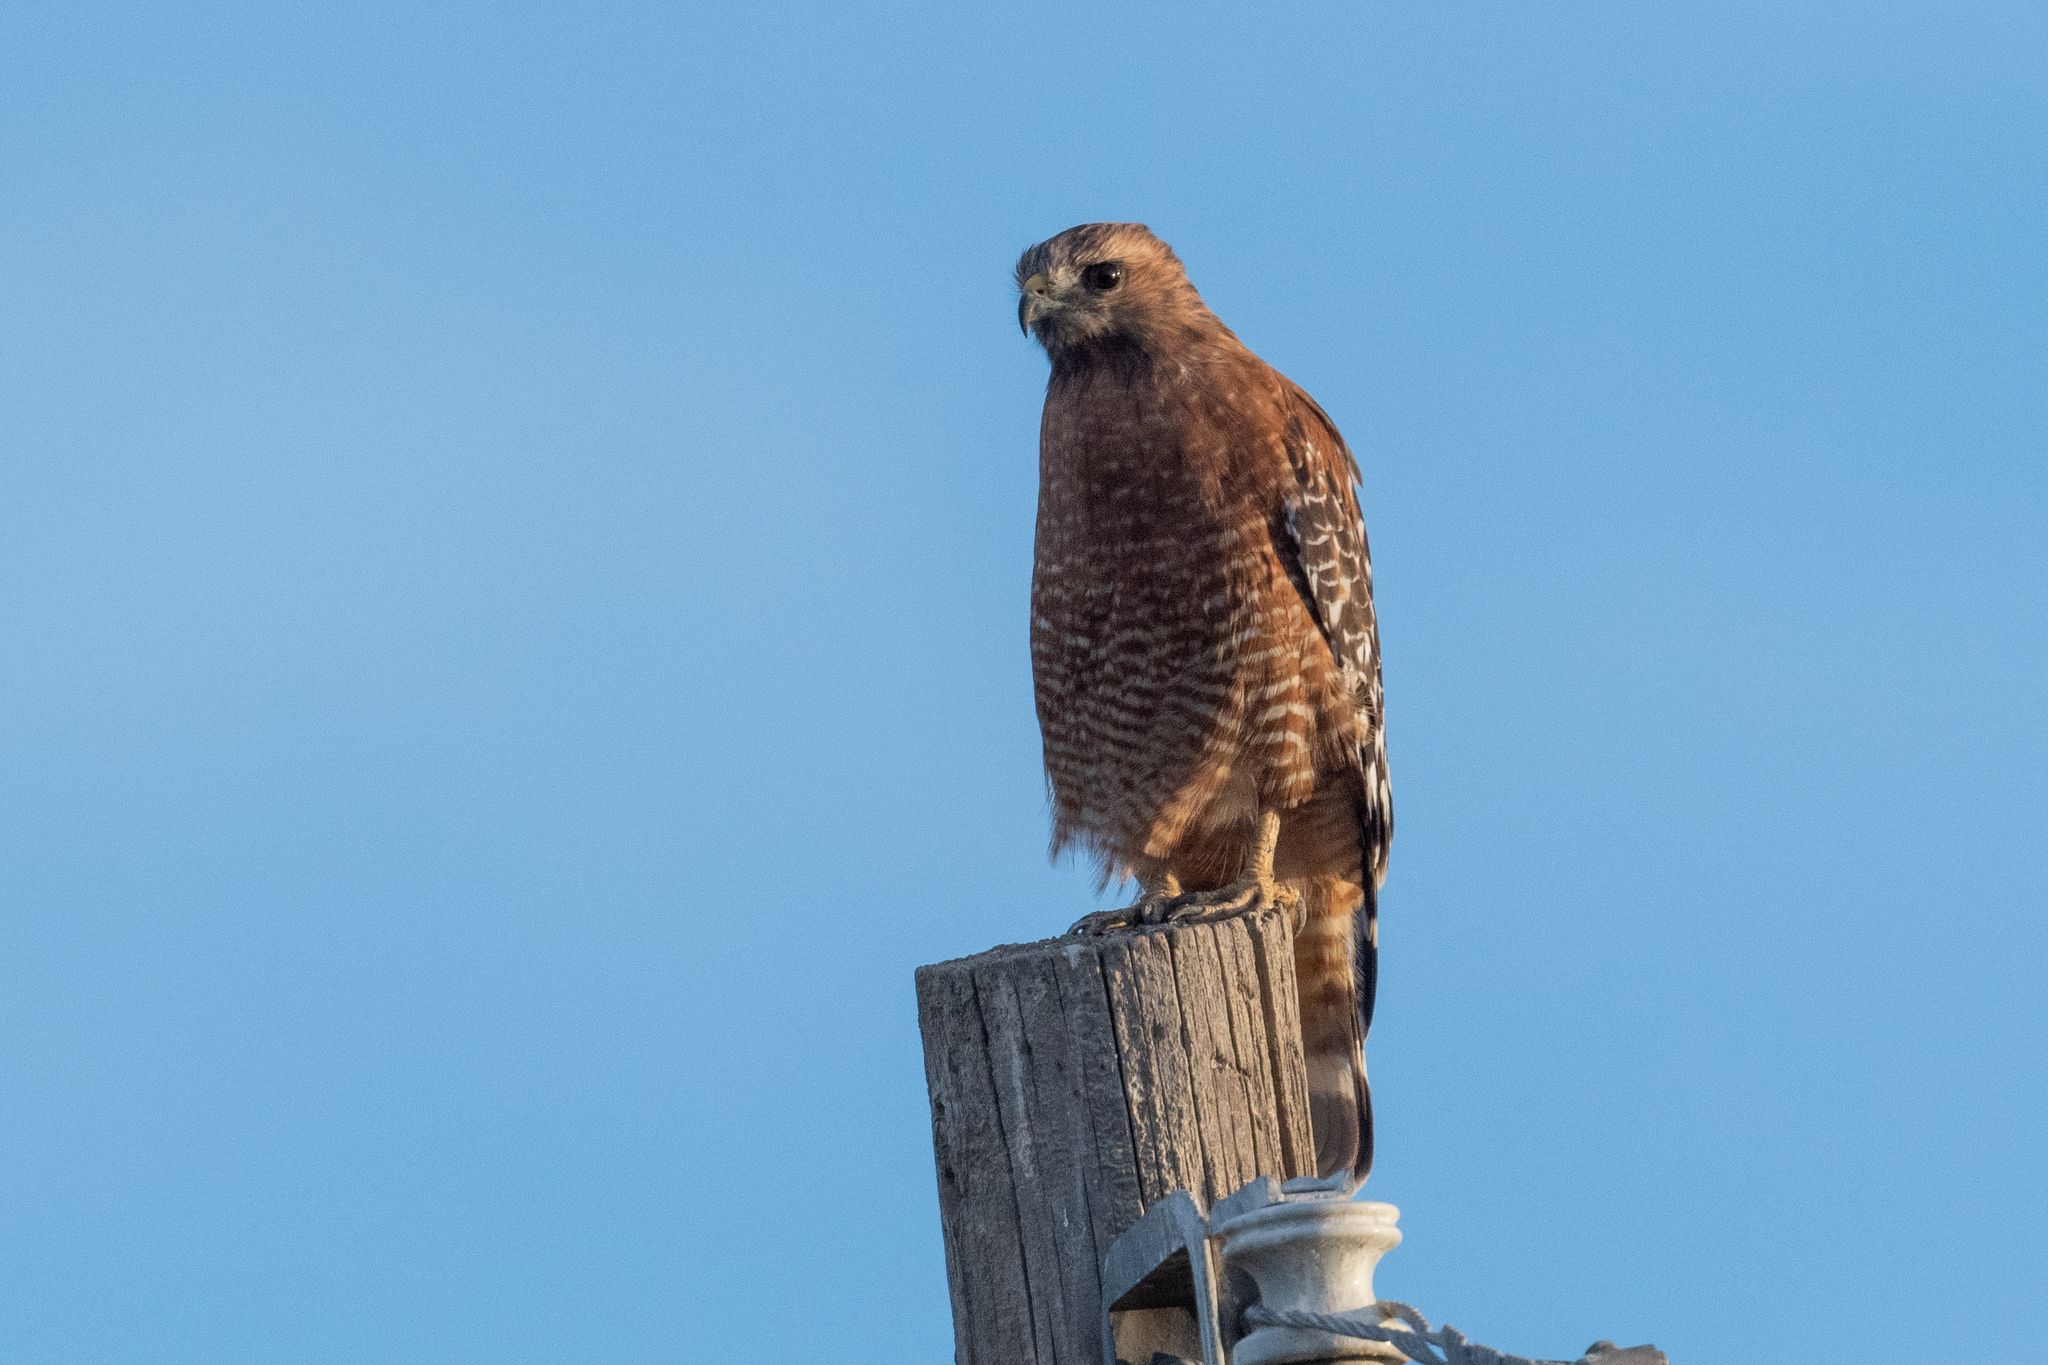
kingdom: Animalia
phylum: Chordata
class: Aves
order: Accipitriformes
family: Accipitridae
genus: Buteo
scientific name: Buteo lineatus
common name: Red-shouldered hawk
